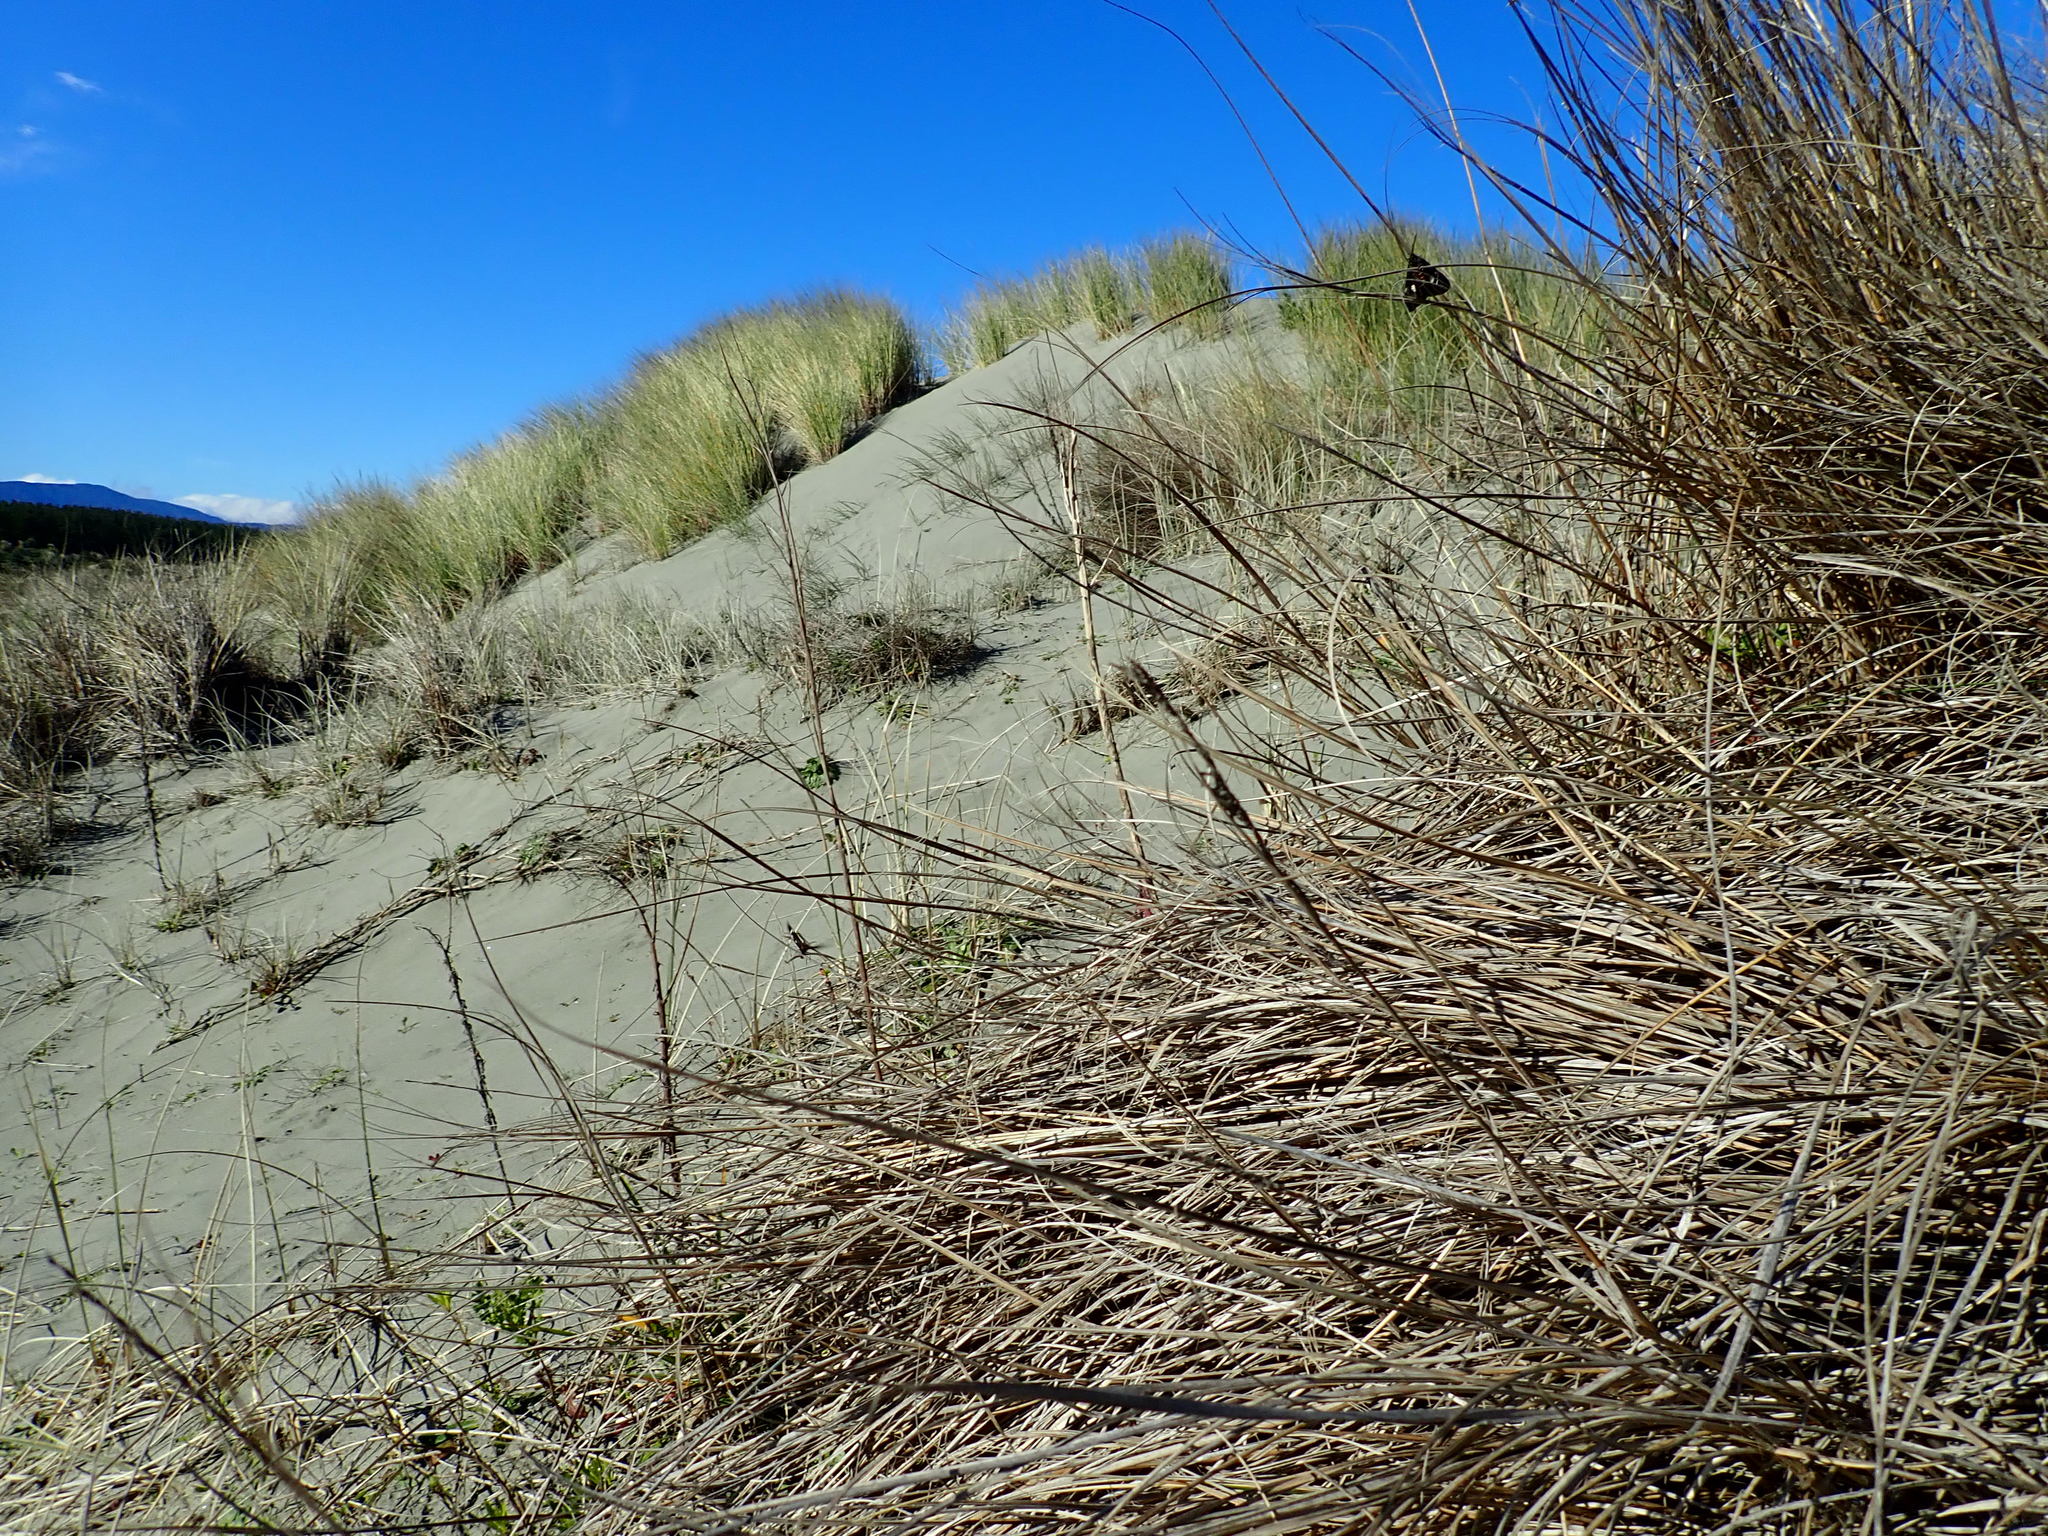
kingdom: Animalia
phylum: Arthropoda
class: Insecta
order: Lepidoptera
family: Erebidae
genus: Nyctemera
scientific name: Nyctemera annulatum
